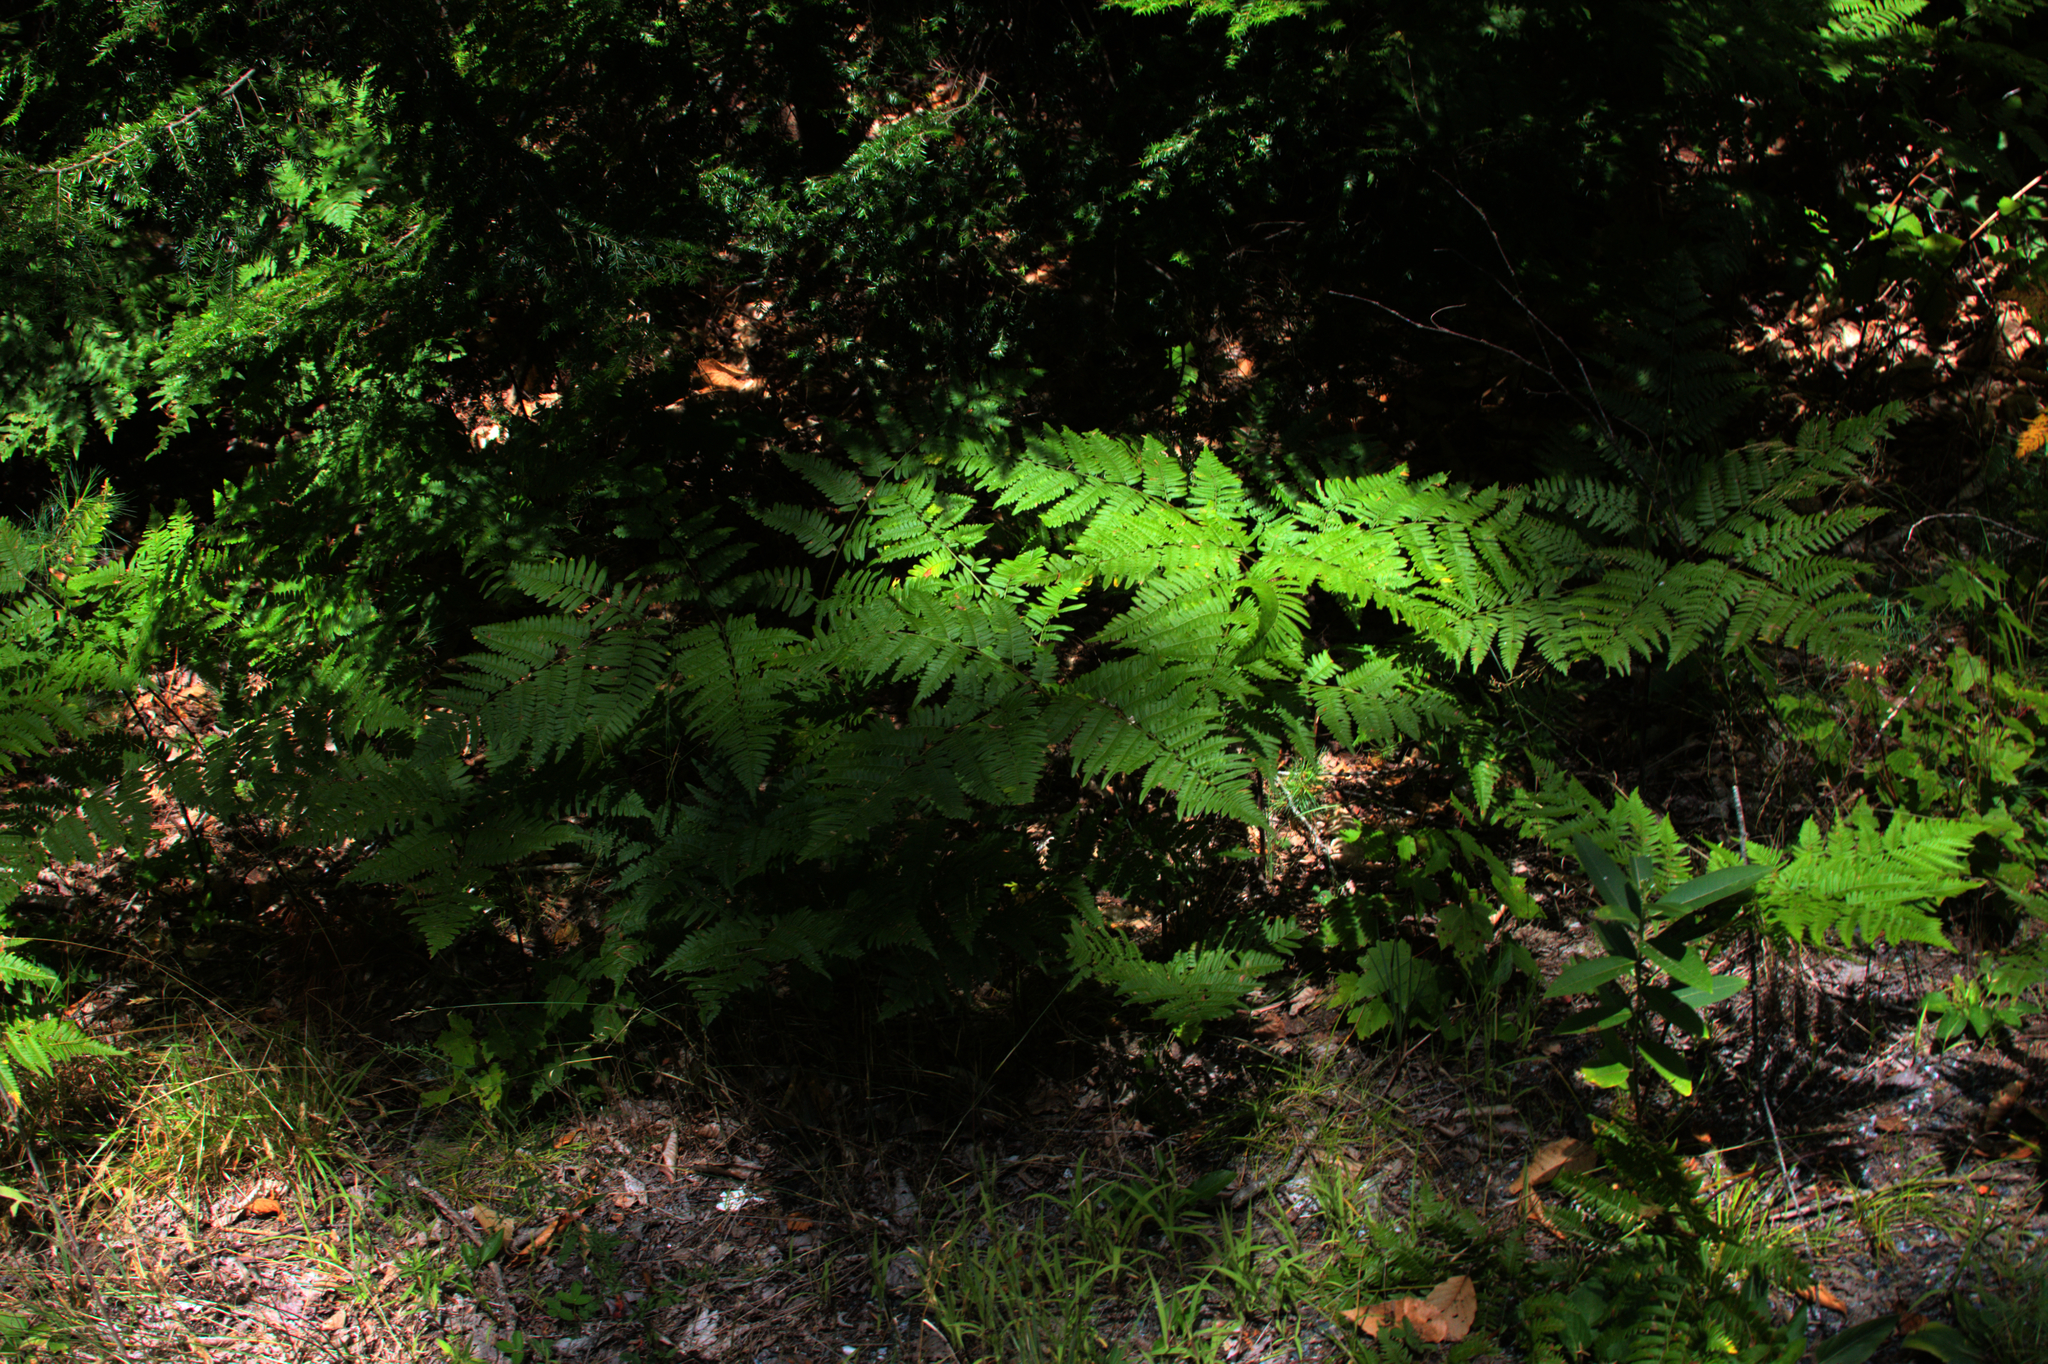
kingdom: Plantae
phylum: Tracheophyta
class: Polypodiopsida
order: Polypodiales
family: Dennstaedtiaceae
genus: Pteridium
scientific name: Pteridium aquilinum
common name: Bracken
